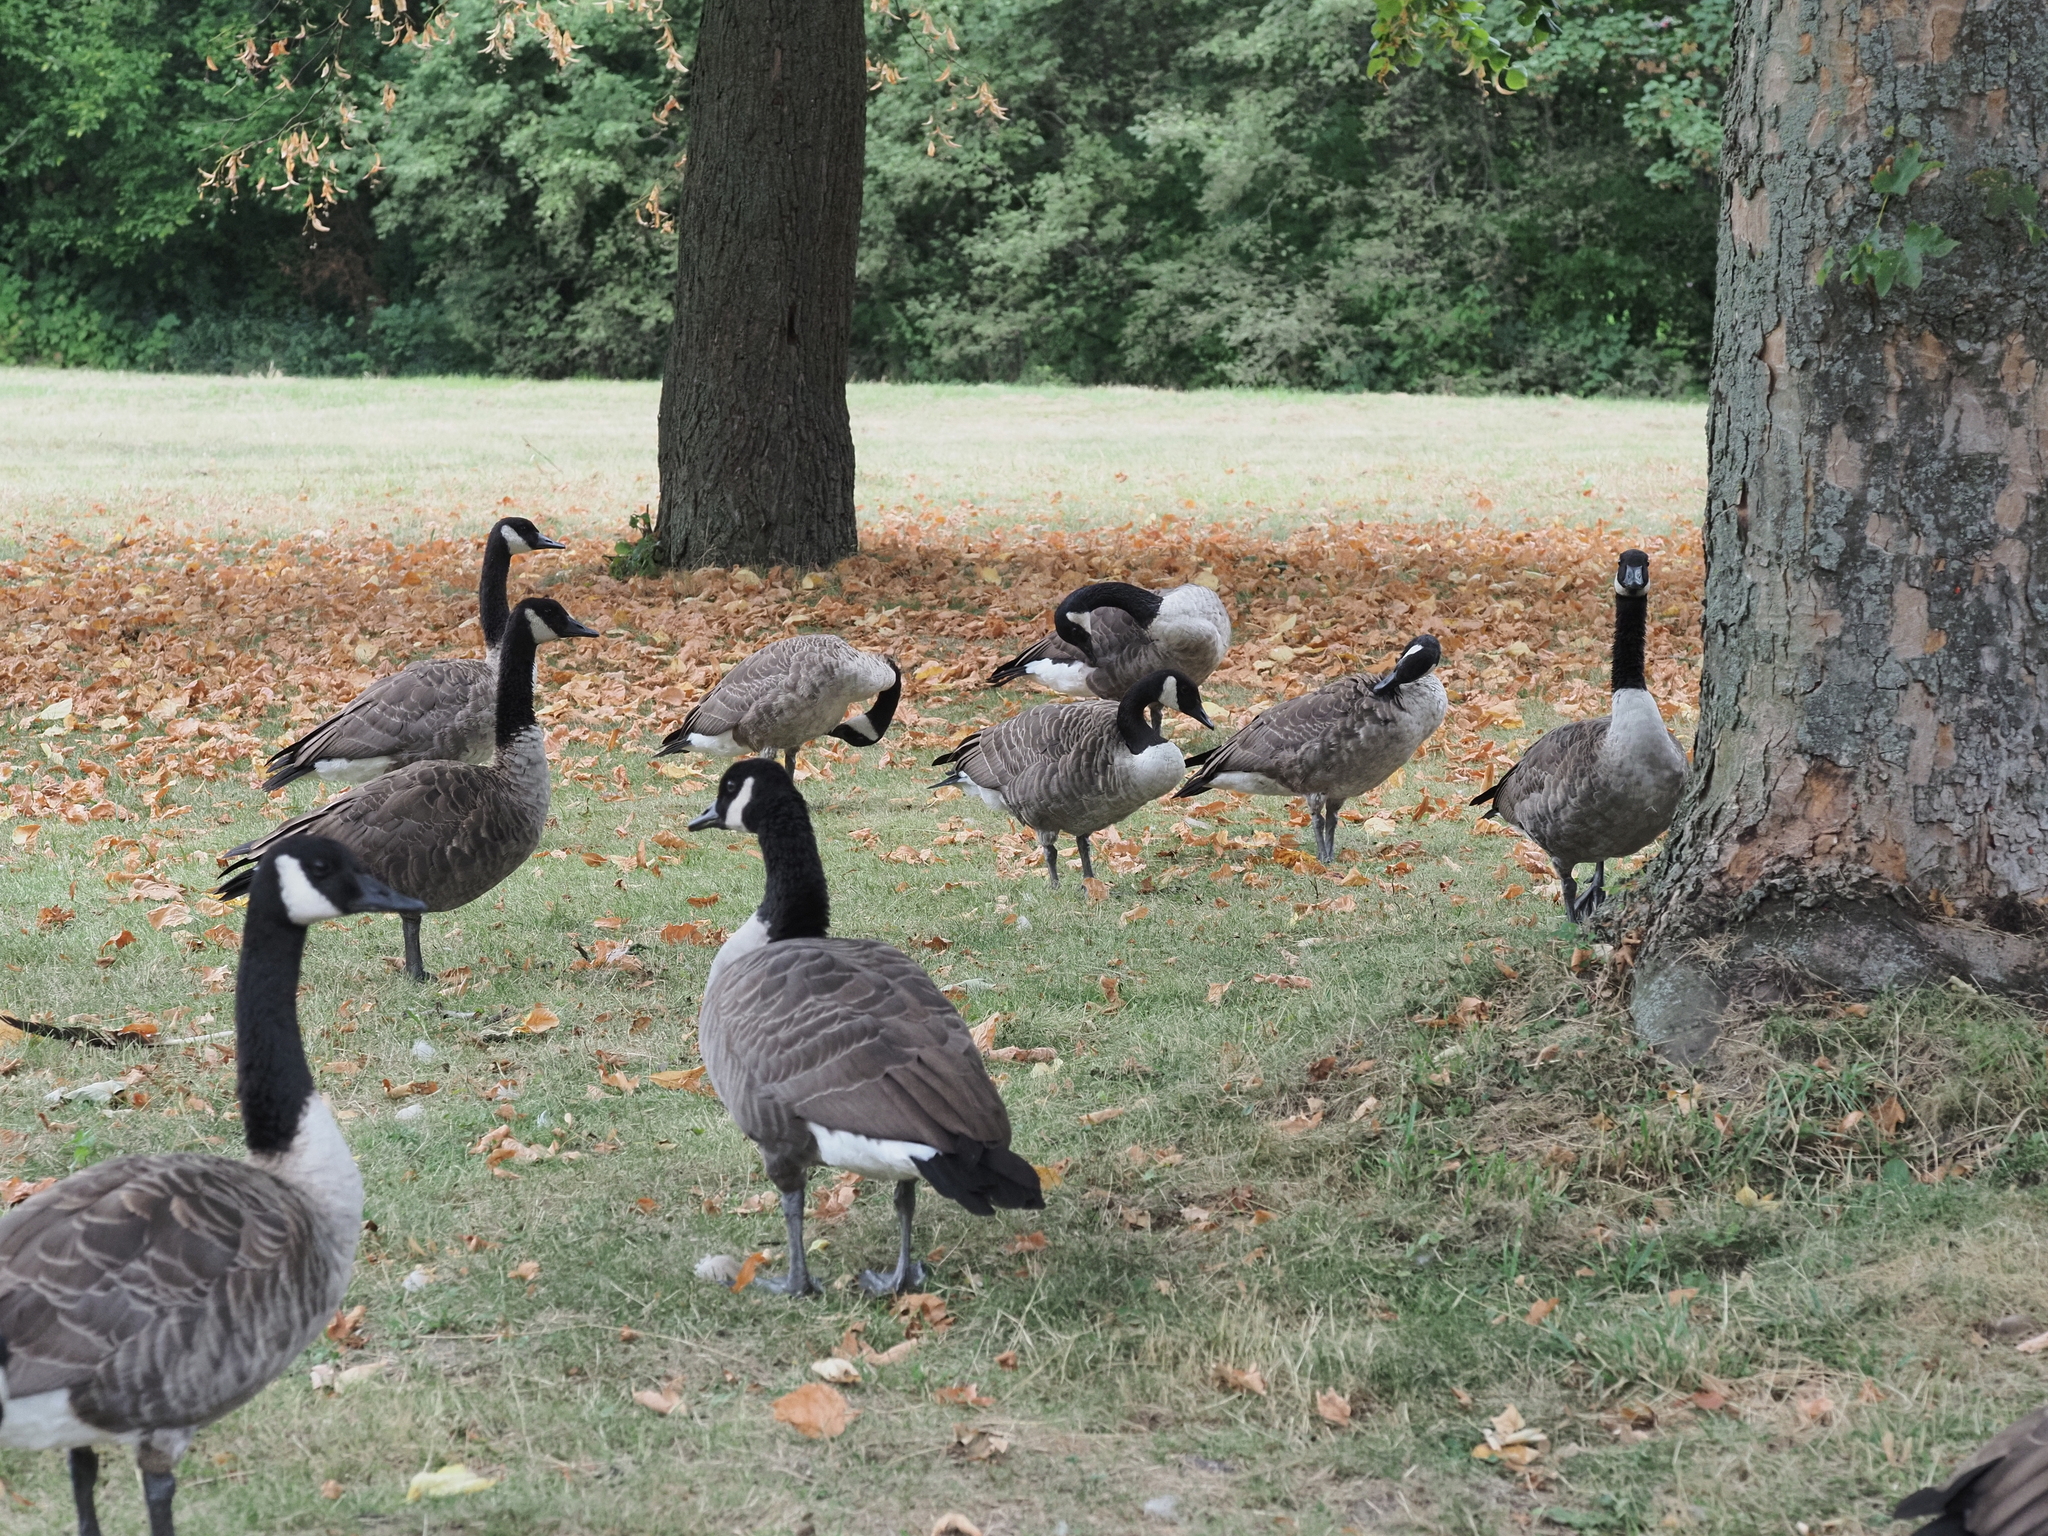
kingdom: Animalia
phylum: Chordata
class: Aves
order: Anseriformes
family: Anatidae
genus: Branta
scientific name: Branta canadensis
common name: Canada goose
